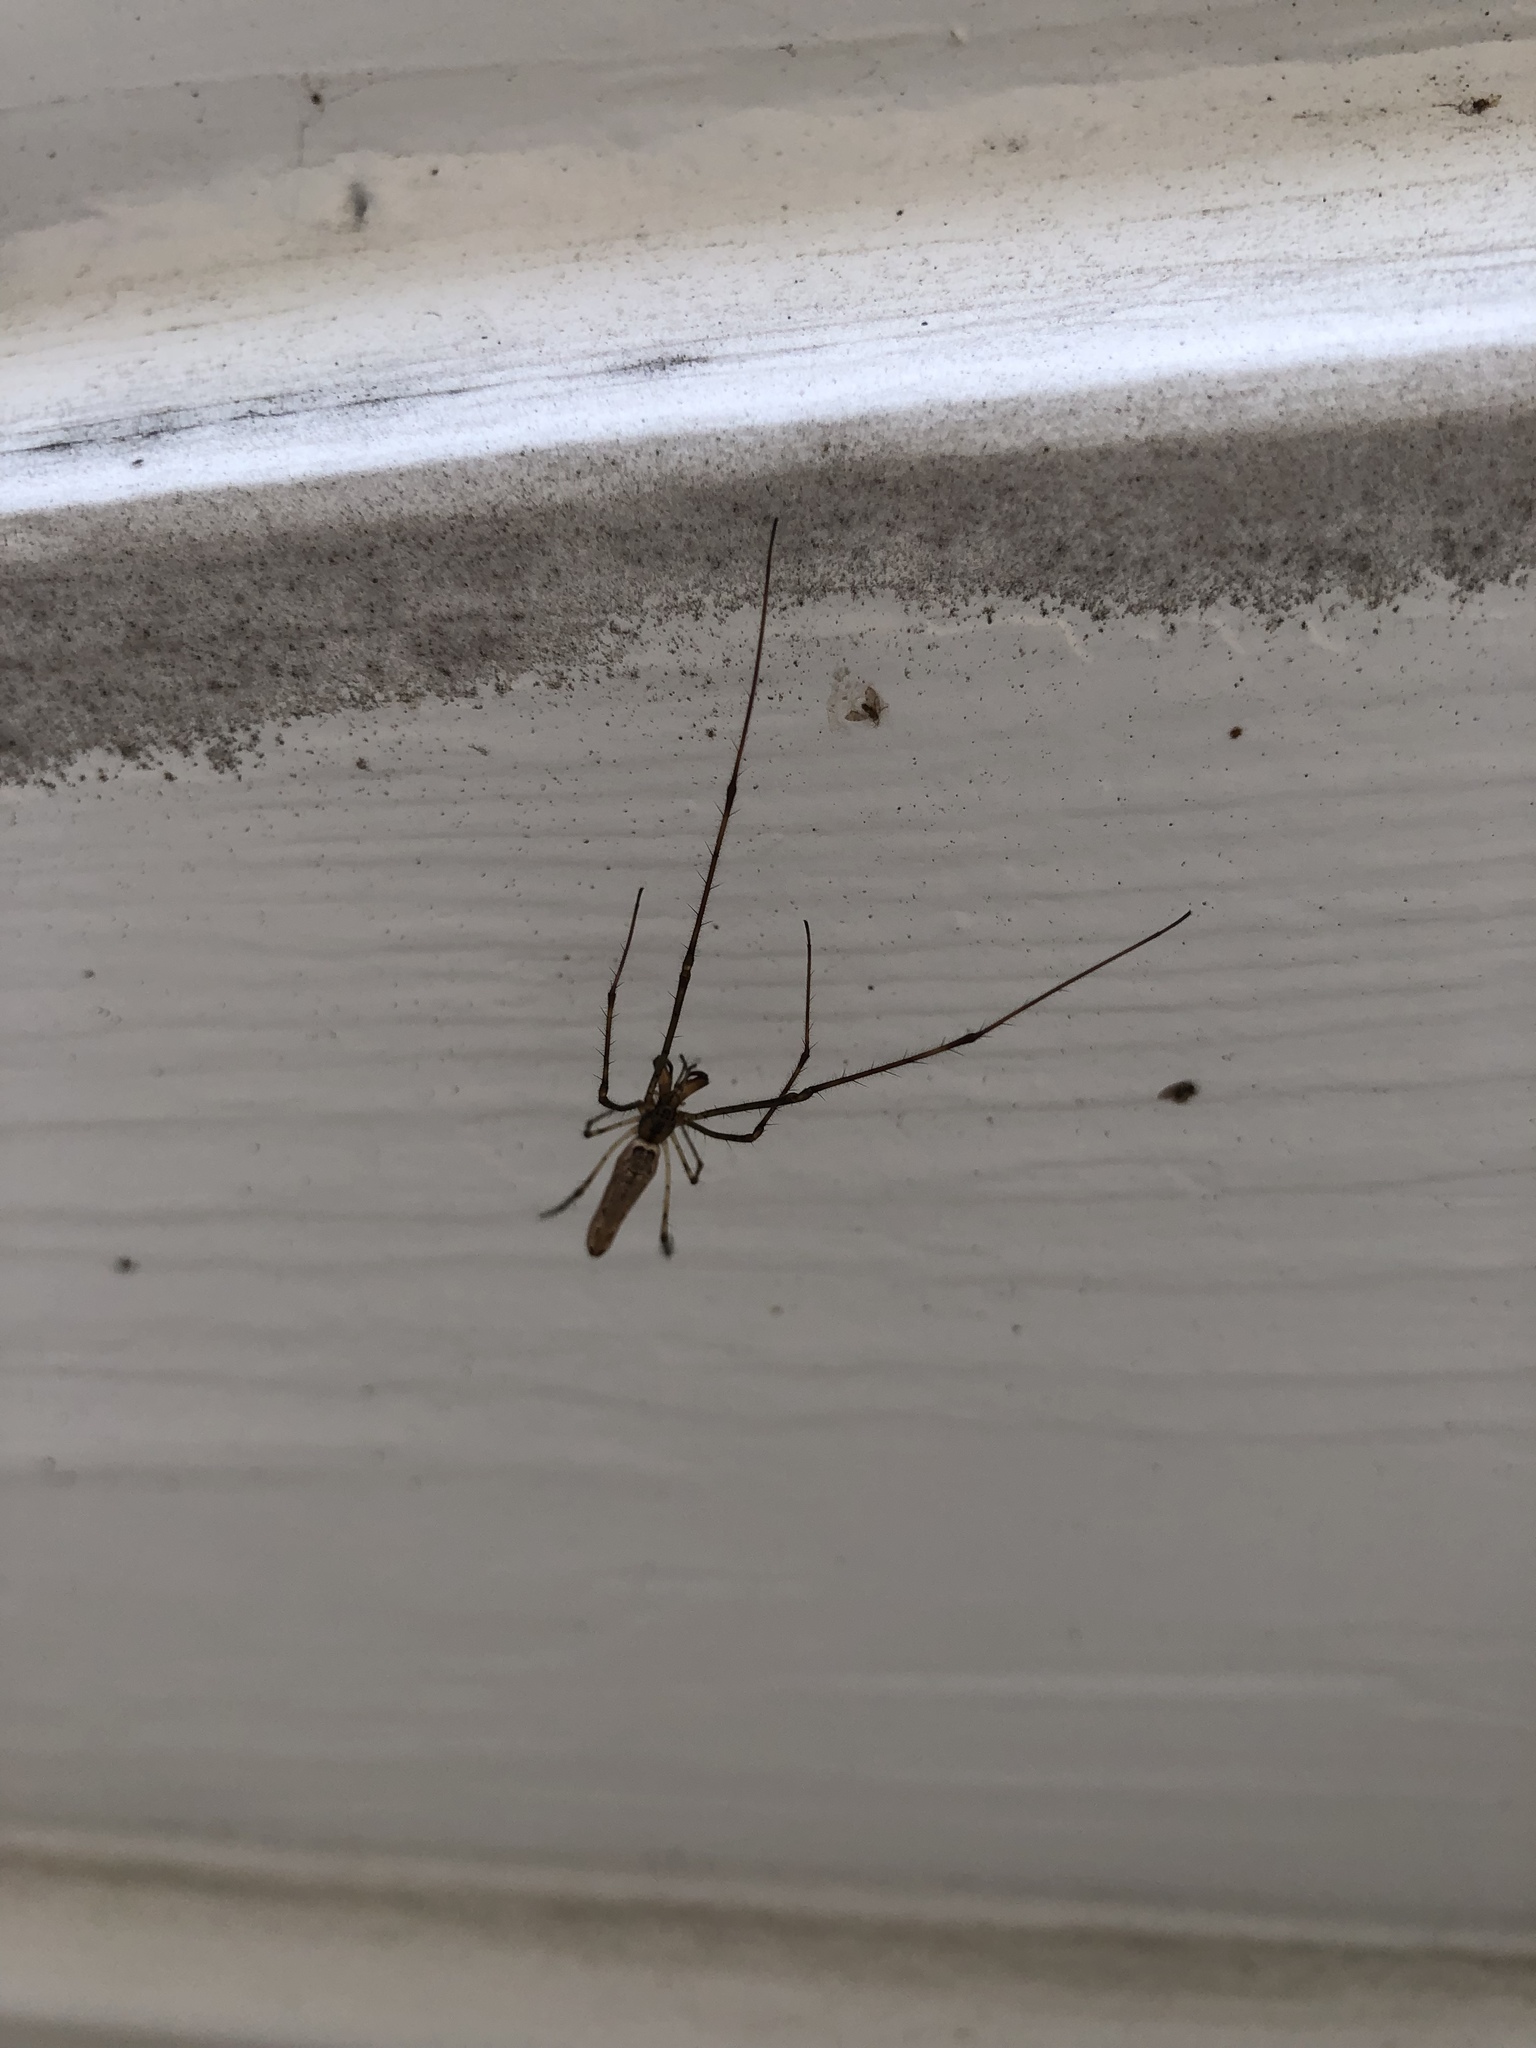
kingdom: Animalia
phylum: Arthropoda
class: Arachnida
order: Araneae
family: Tetragnathidae
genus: Tetragnatha
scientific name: Tetragnatha
